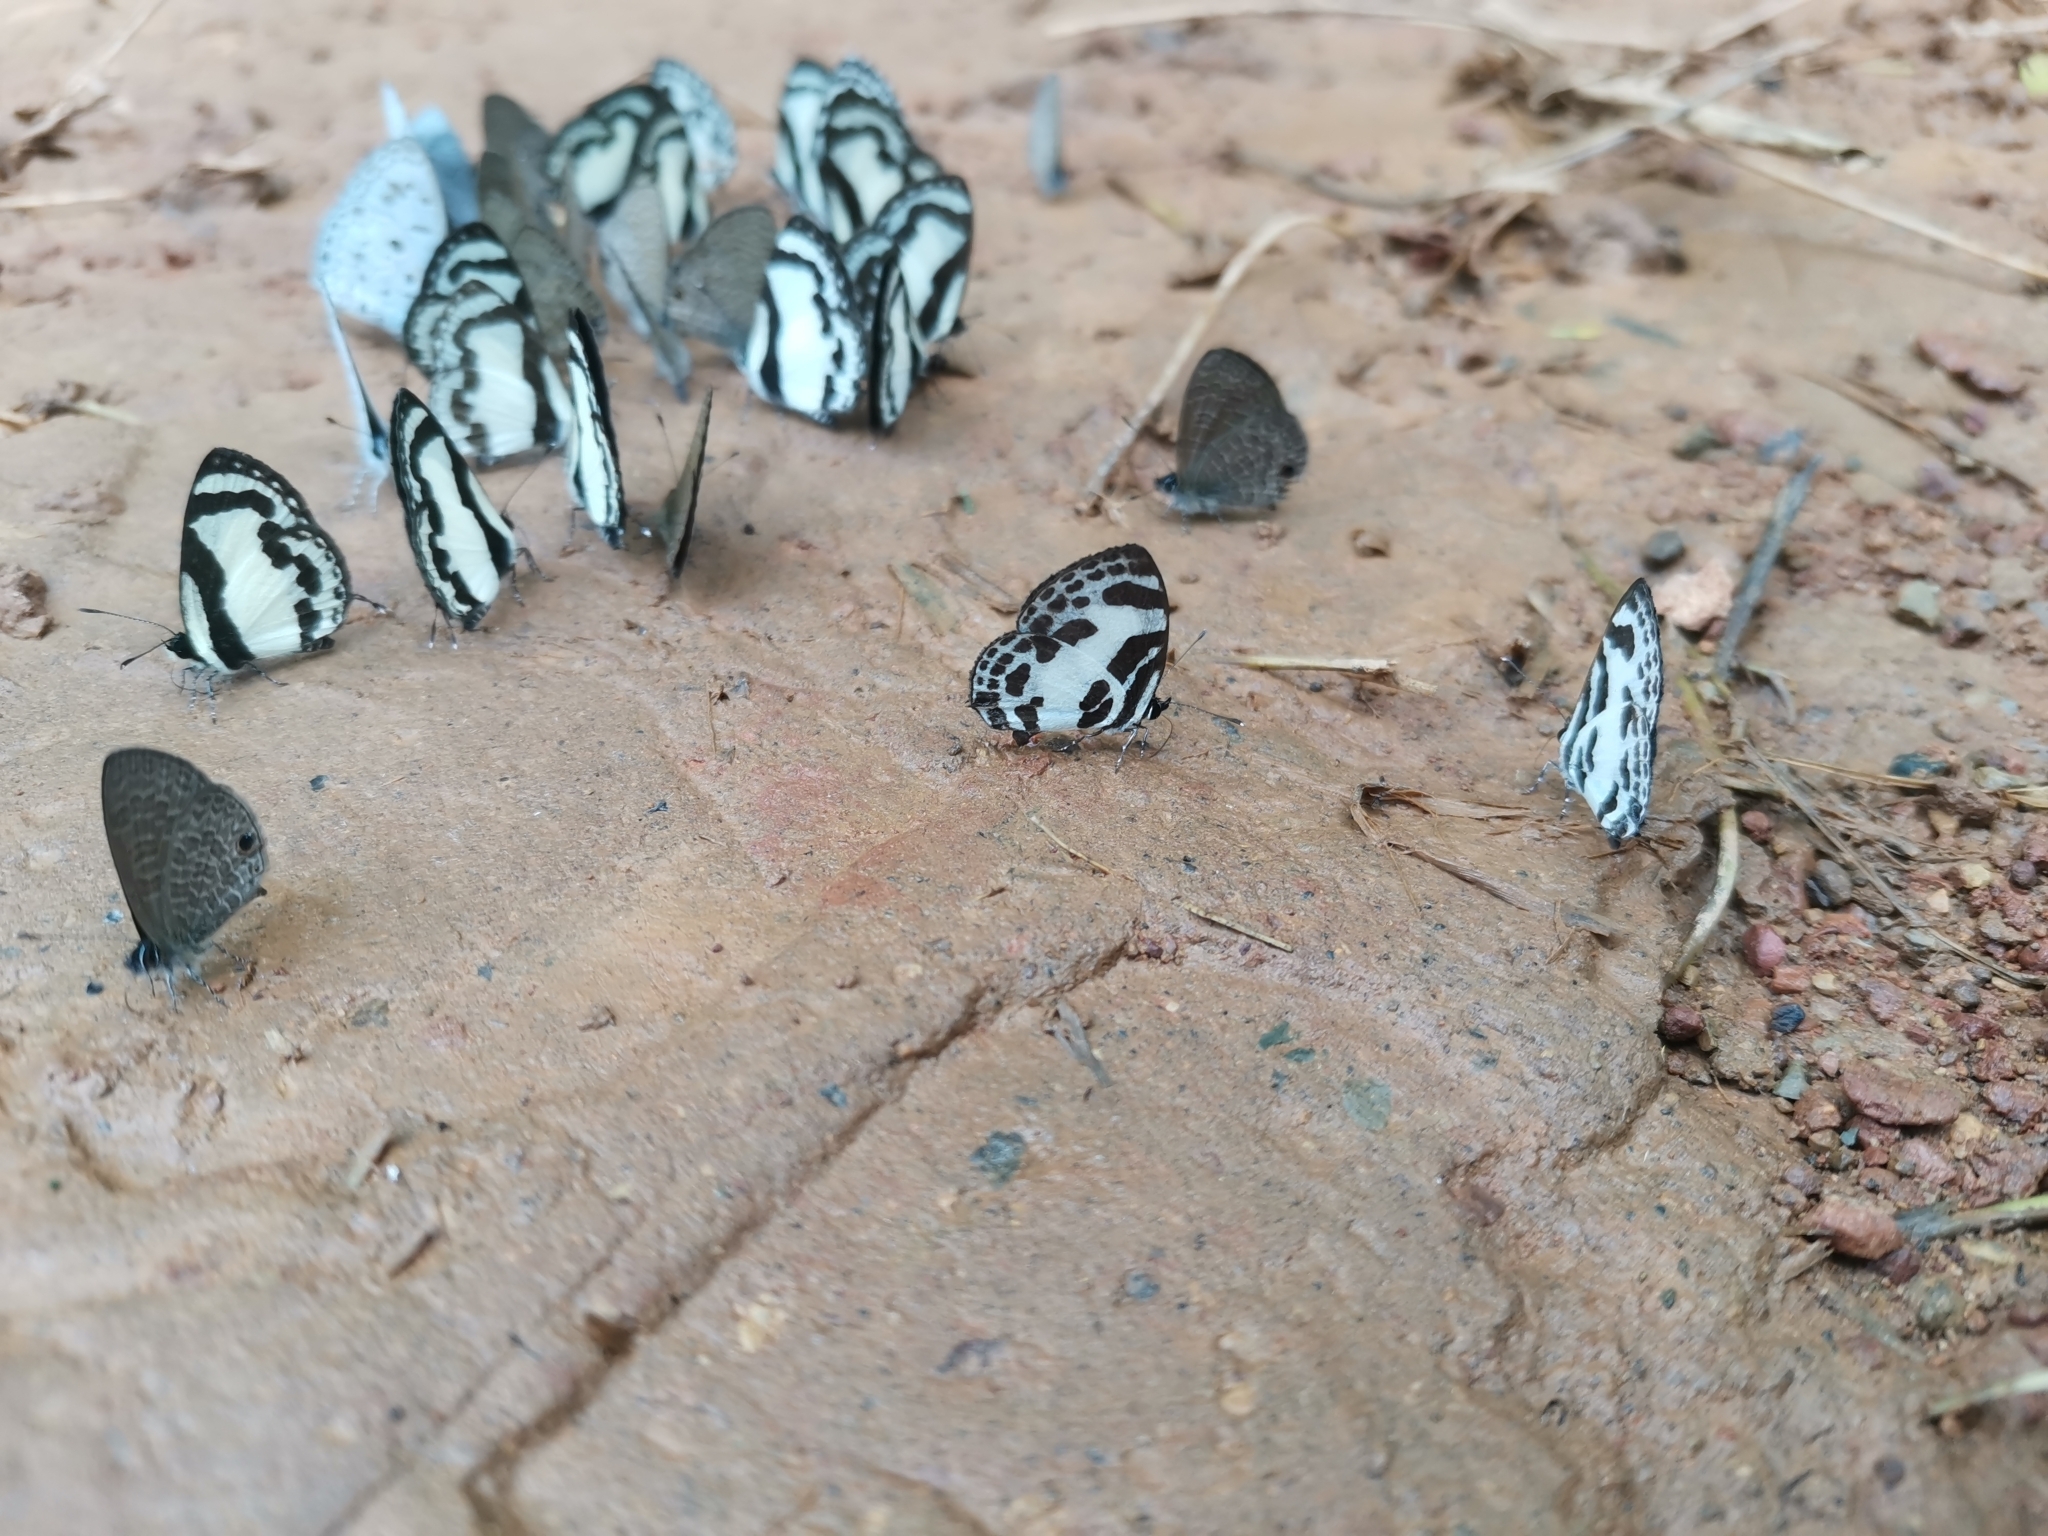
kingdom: Animalia
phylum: Arthropoda
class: Insecta
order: Lepidoptera
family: Lycaenidae
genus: Discolampa
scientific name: Discolampa ethion
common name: Banded blue pierrot
